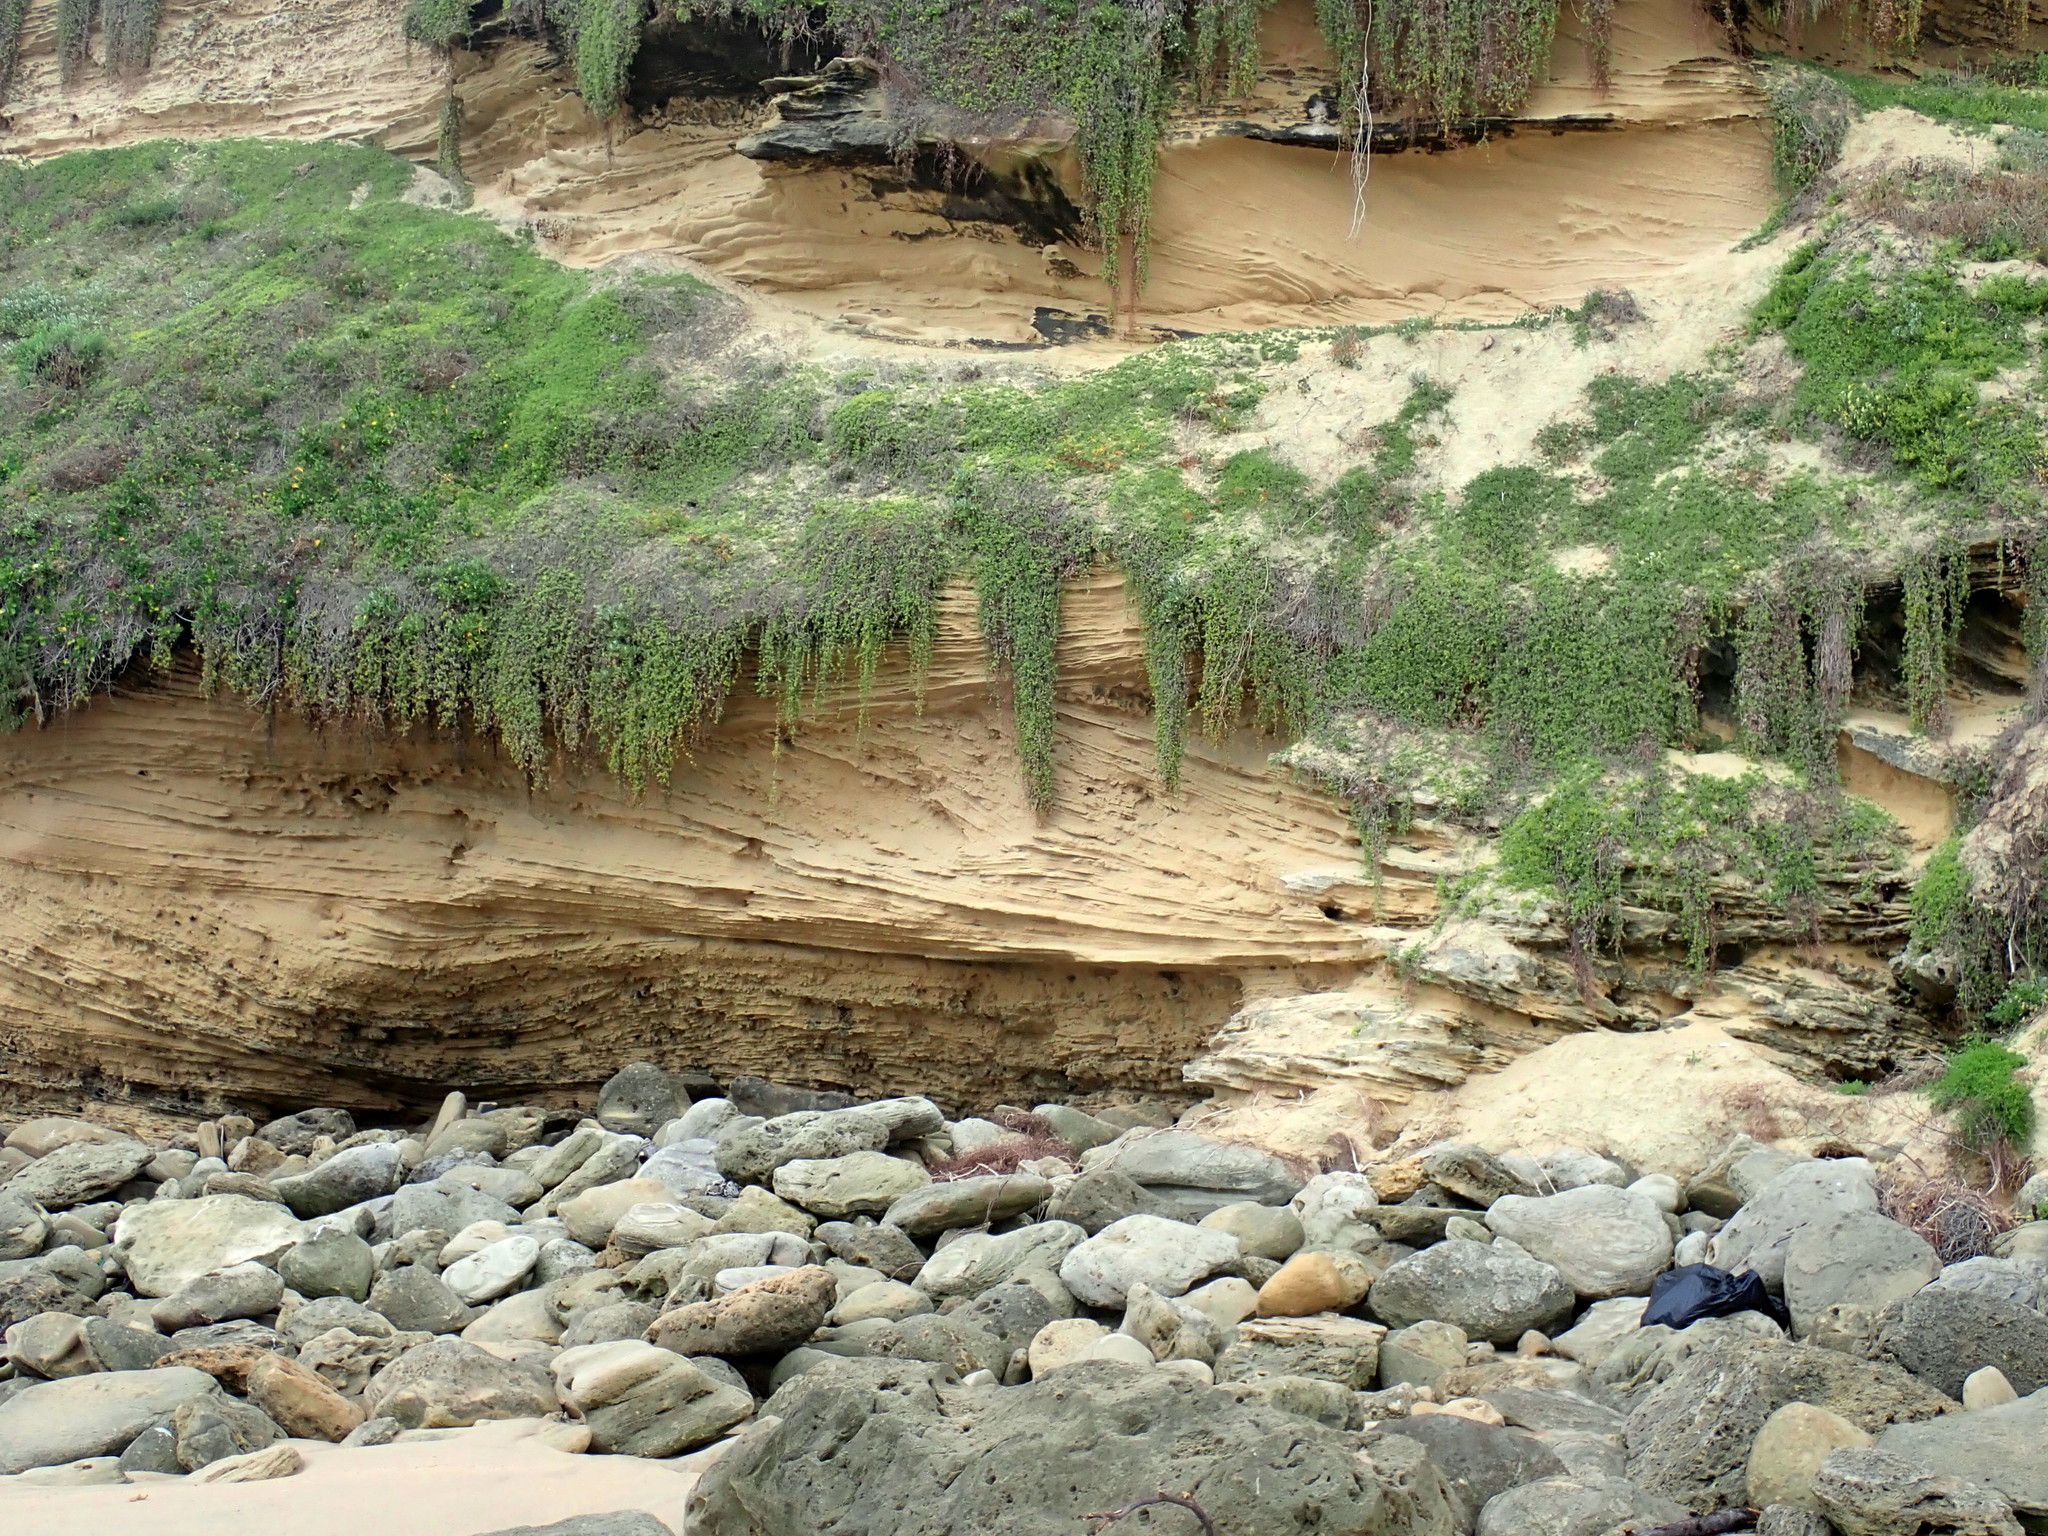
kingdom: Plantae
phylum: Tracheophyta
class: Magnoliopsida
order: Caryophyllales
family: Aizoaceae
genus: Drosanthemum
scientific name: Drosanthemum candens
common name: Rodondo-creeper
